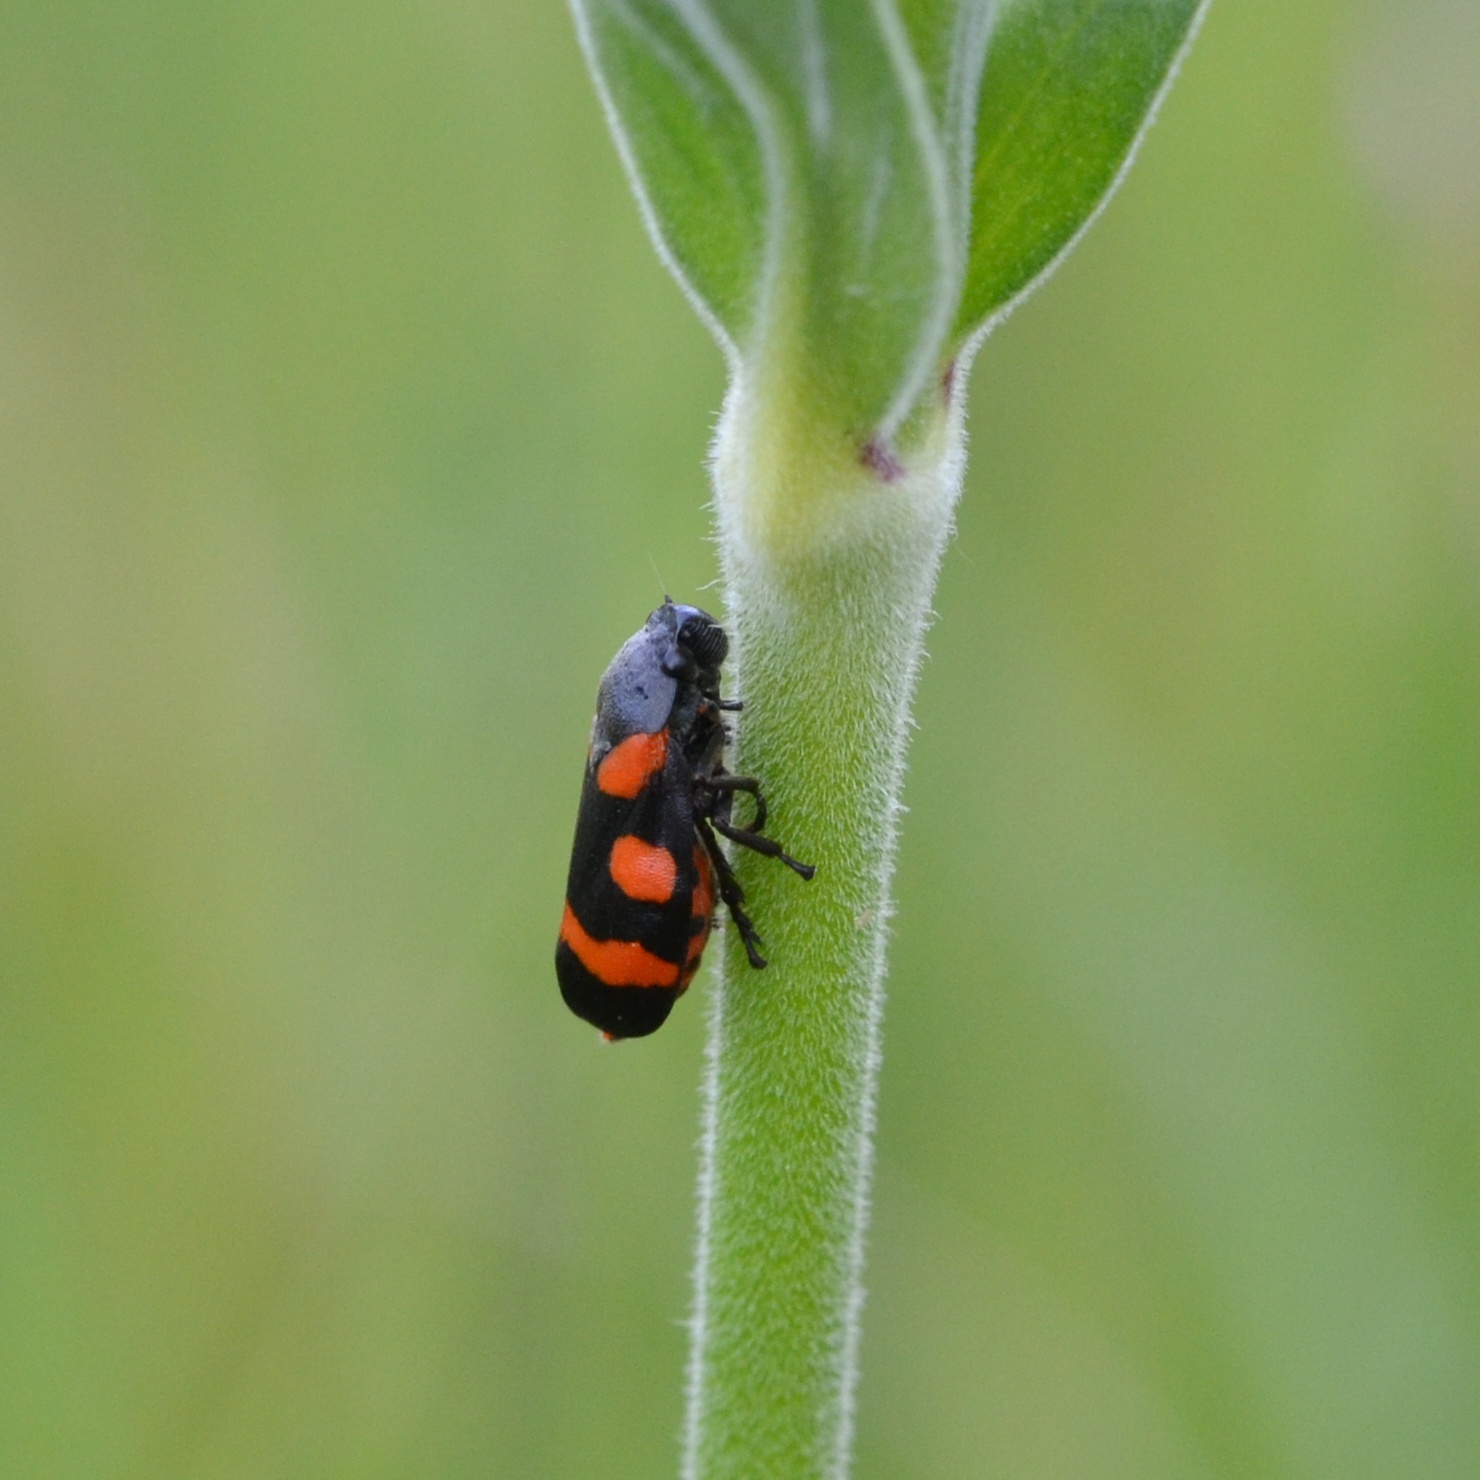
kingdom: Animalia
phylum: Arthropoda
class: Insecta
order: Hemiptera
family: Cercopidae
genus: Cercopis
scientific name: Cercopis sanguinolenta
